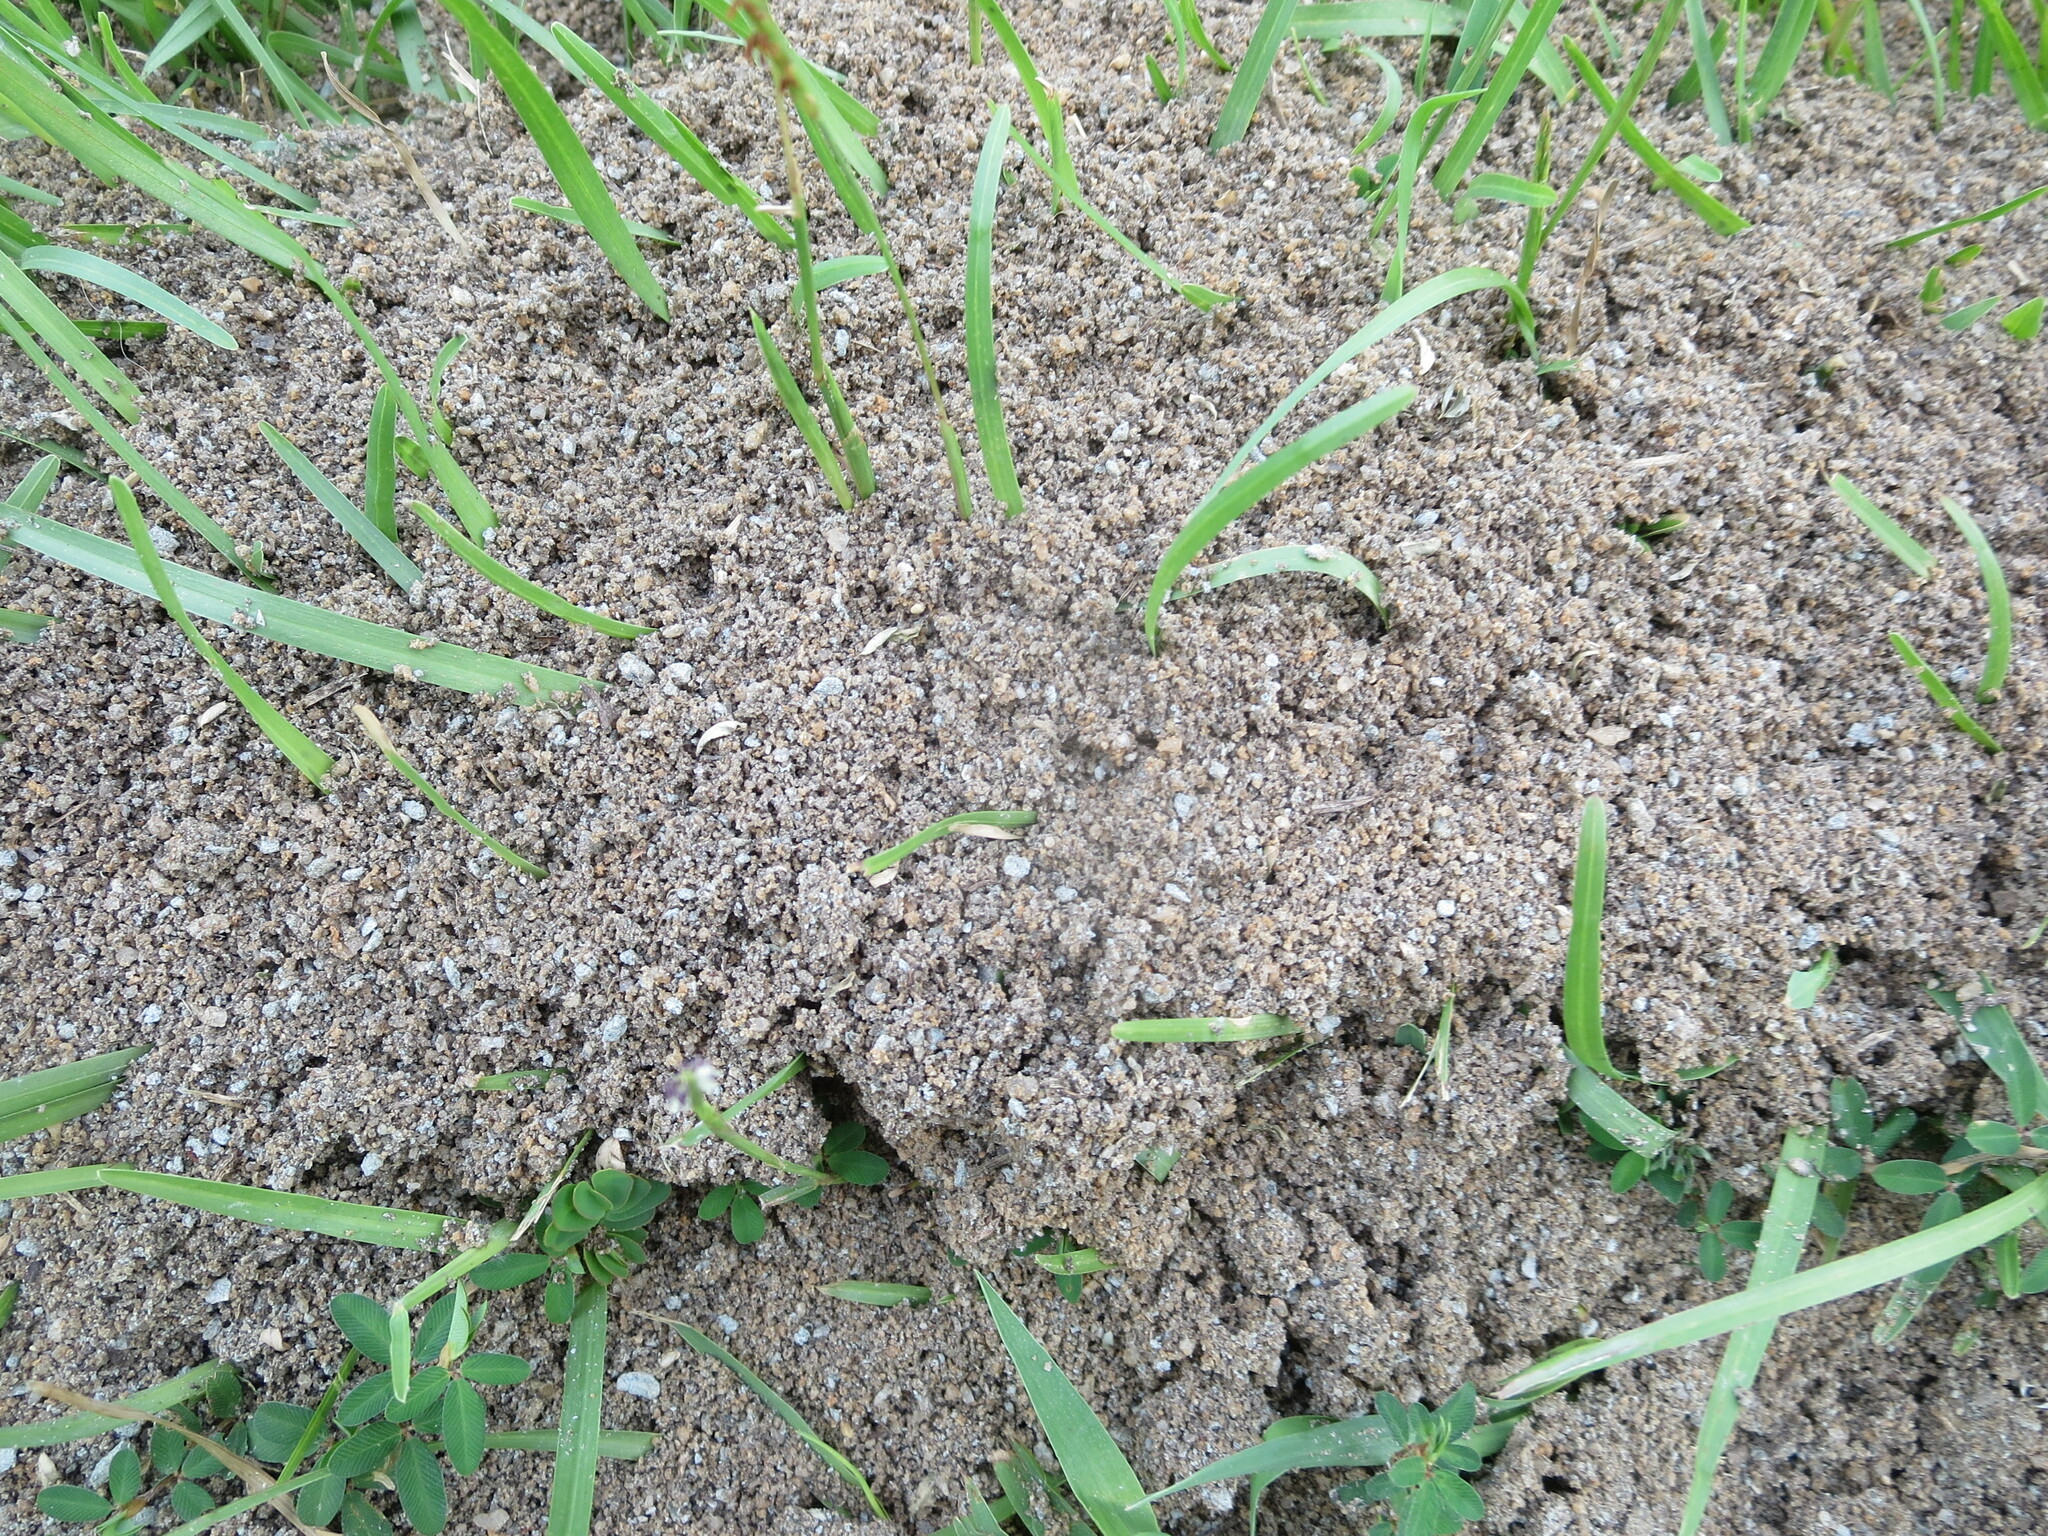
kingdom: Animalia
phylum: Arthropoda
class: Insecta
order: Hymenoptera
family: Formicidae
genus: Solenopsis
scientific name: Solenopsis invicta
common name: Red imported fire ant
